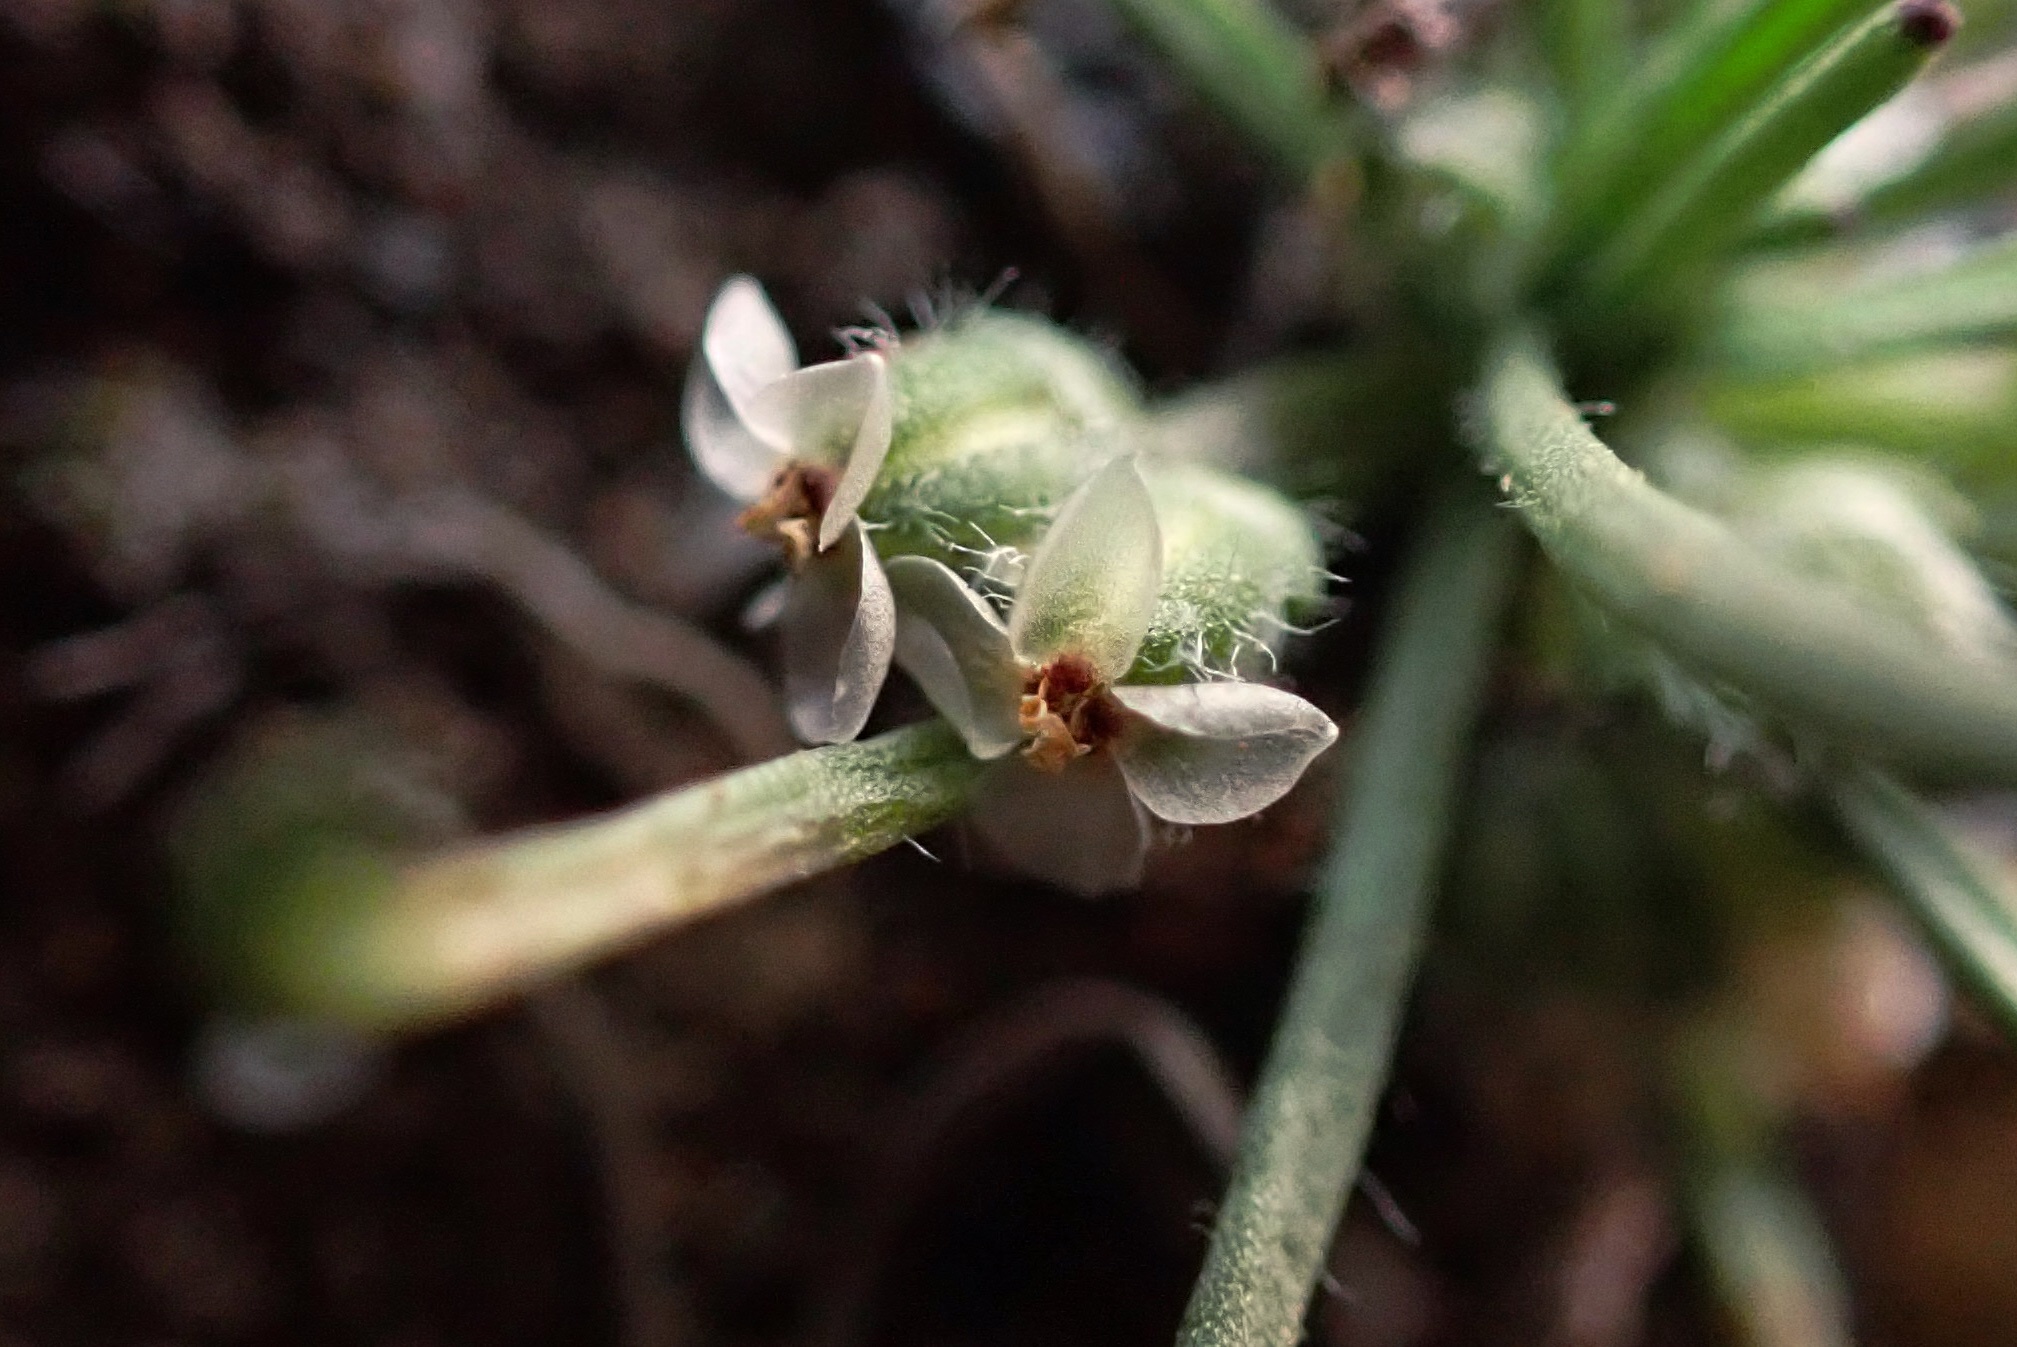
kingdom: Plantae
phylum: Tracheophyta
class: Magnoliopsida
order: Lamiales
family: Plantaginaceae
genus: Plantago
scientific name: Plantago erecta
